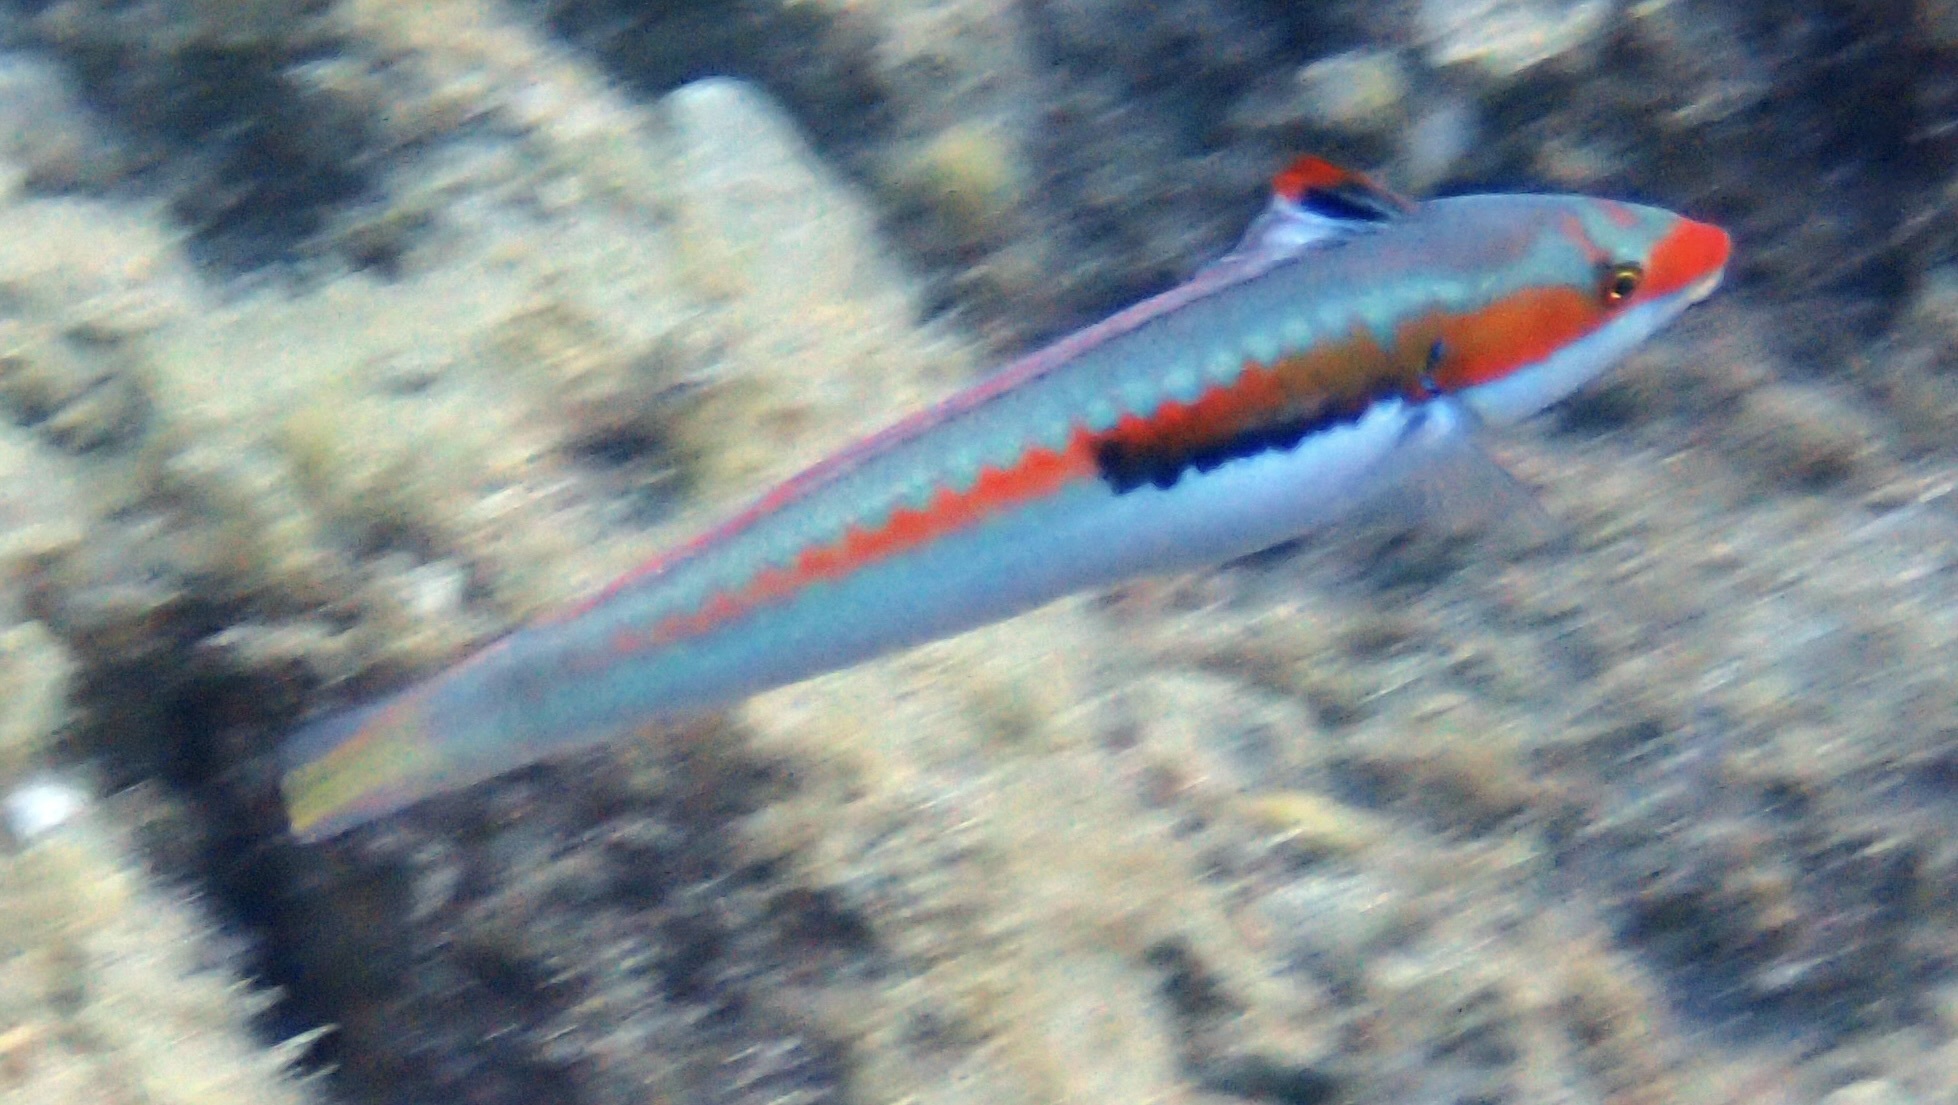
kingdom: Animalia
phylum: Chordata
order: Perciformes
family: Labridae
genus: Coris
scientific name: Coris julis
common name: Rainbow wrasse
